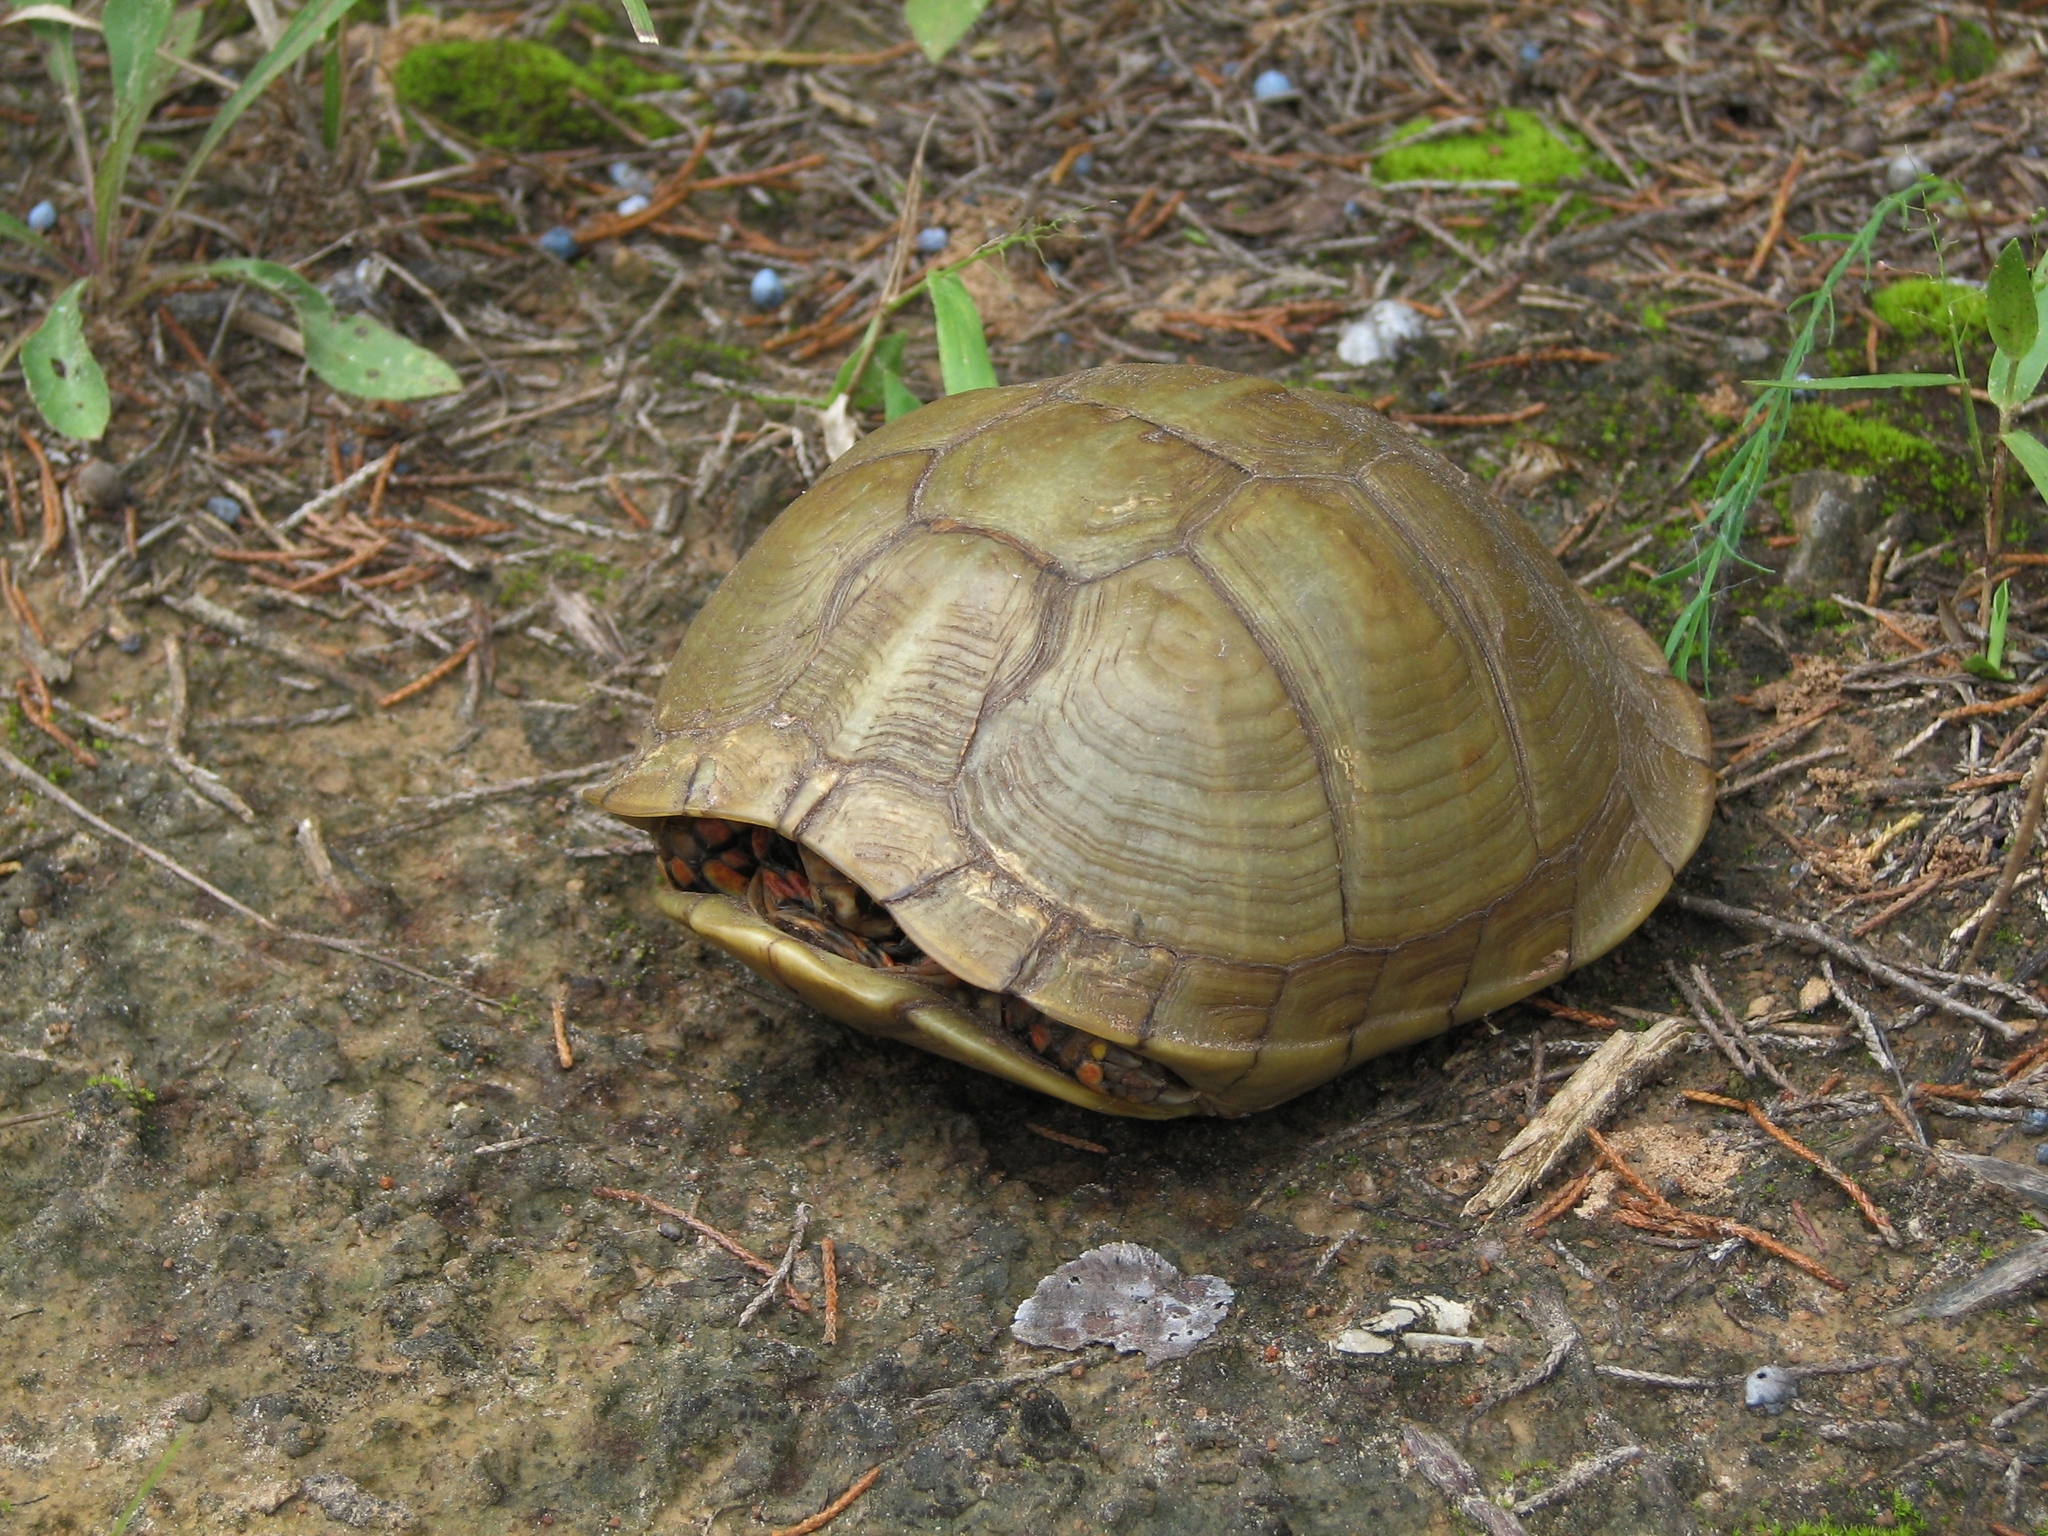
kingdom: Animalia
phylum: Chordata
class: Testudines
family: Emydidae
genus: Terrapene
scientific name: Terrapene carolina
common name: Common box turtle
